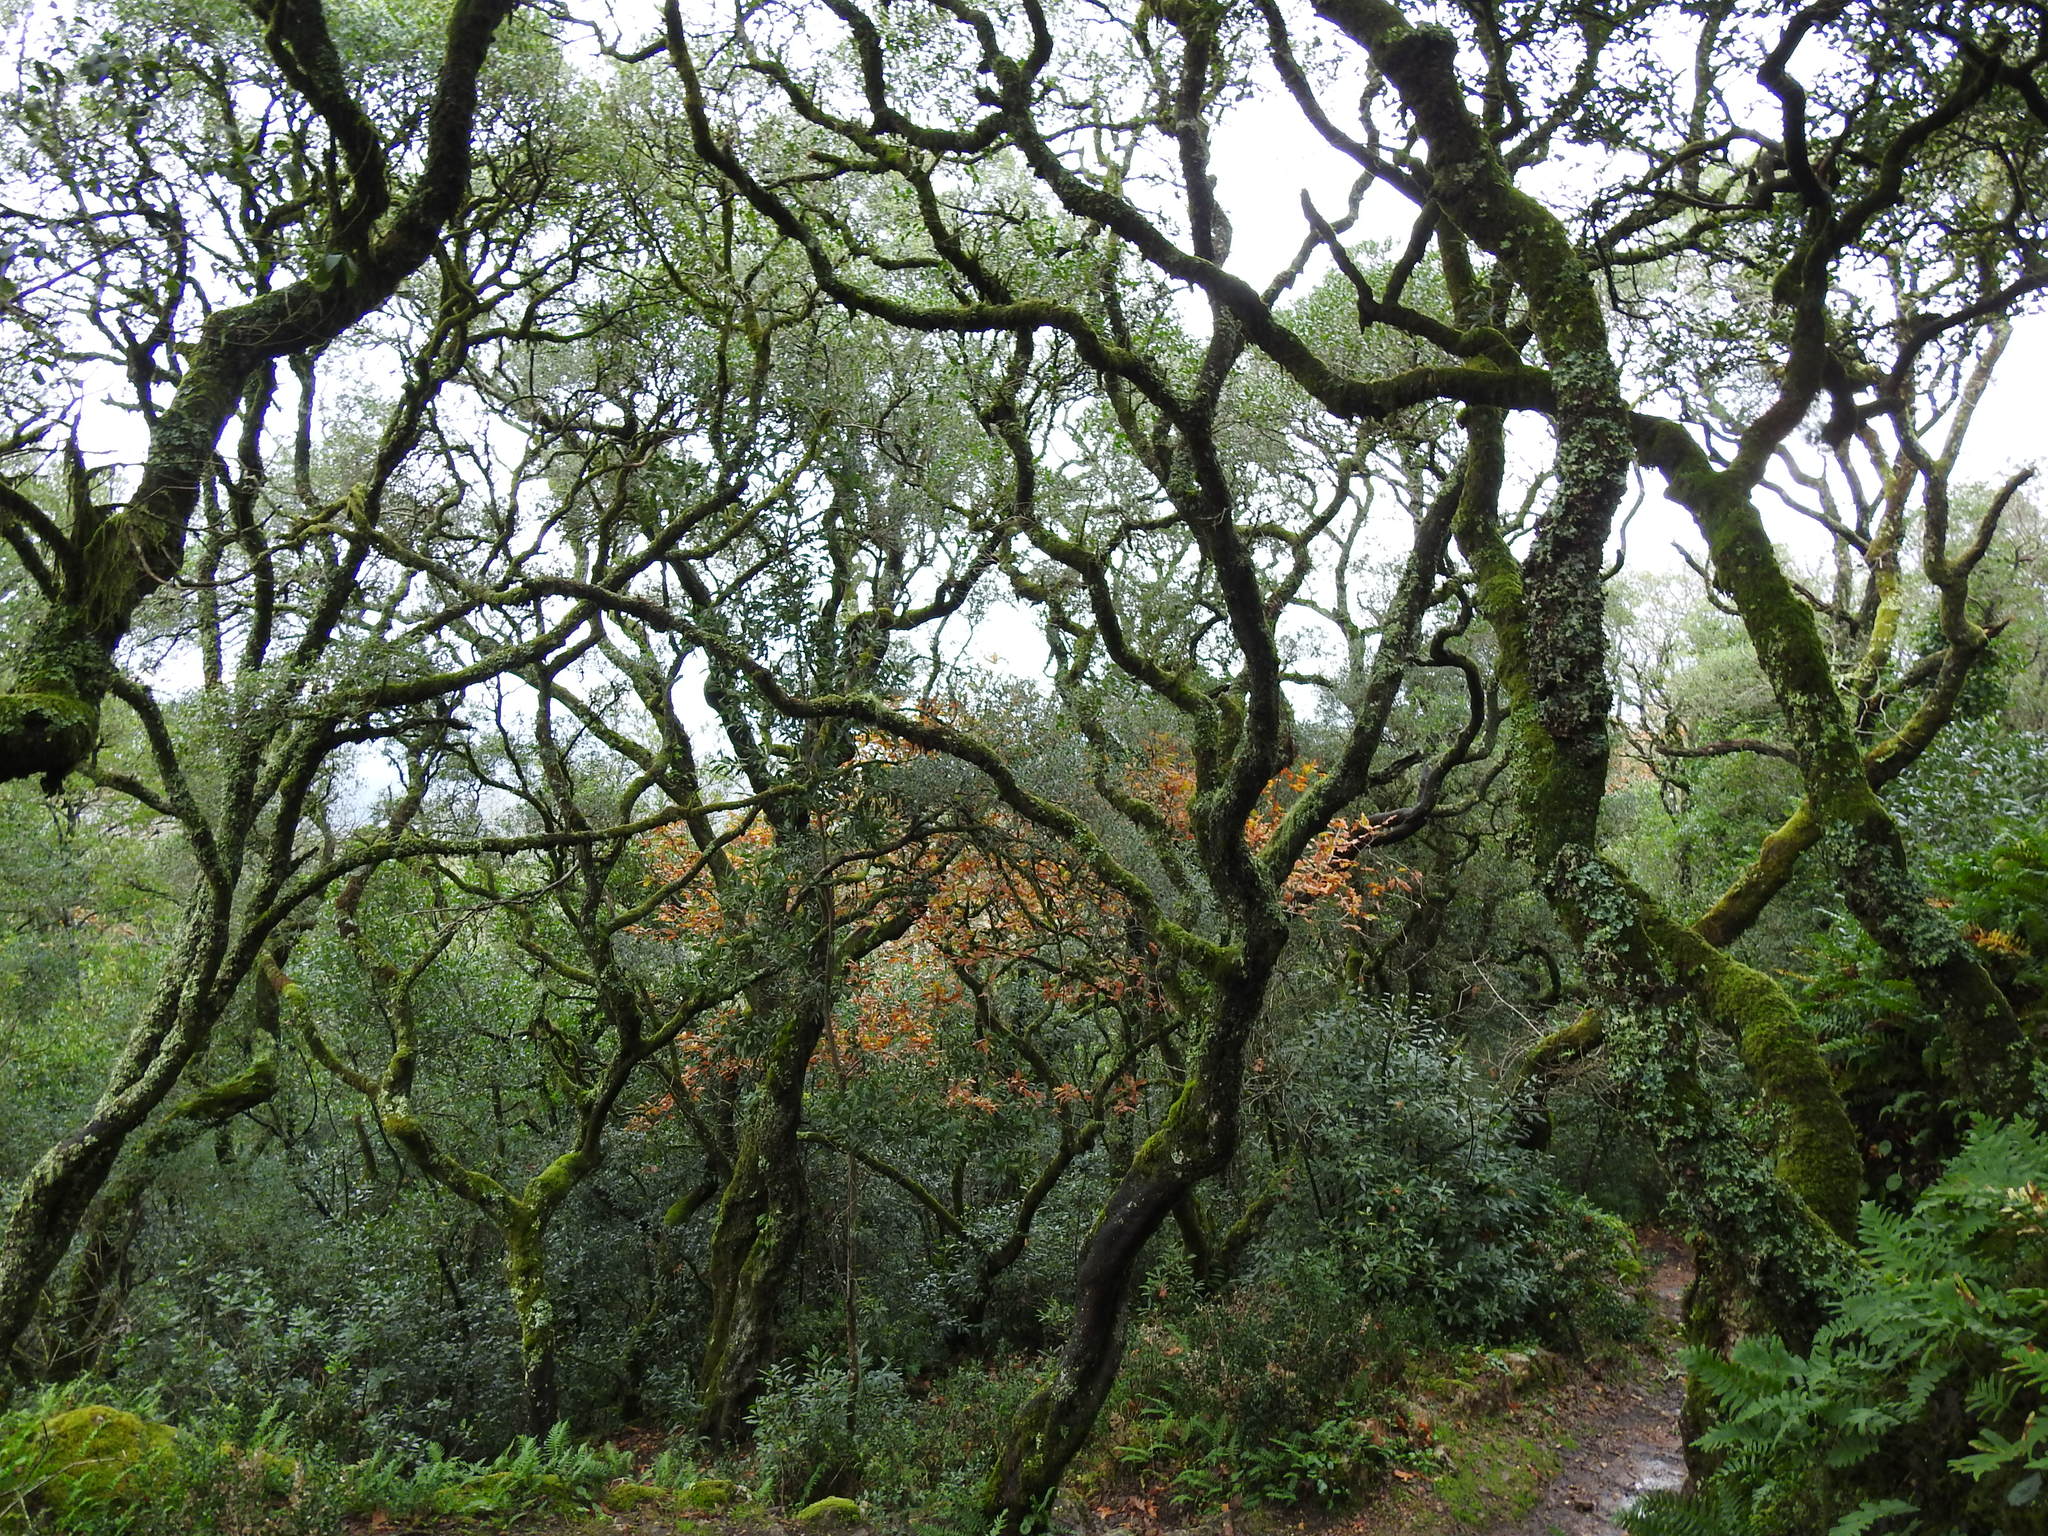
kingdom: Plantae
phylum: Tracheophyta
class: Magnoliopsida
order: Lamiales
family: Oleaceae
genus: Phillyrea
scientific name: Phillyrea latifolia
